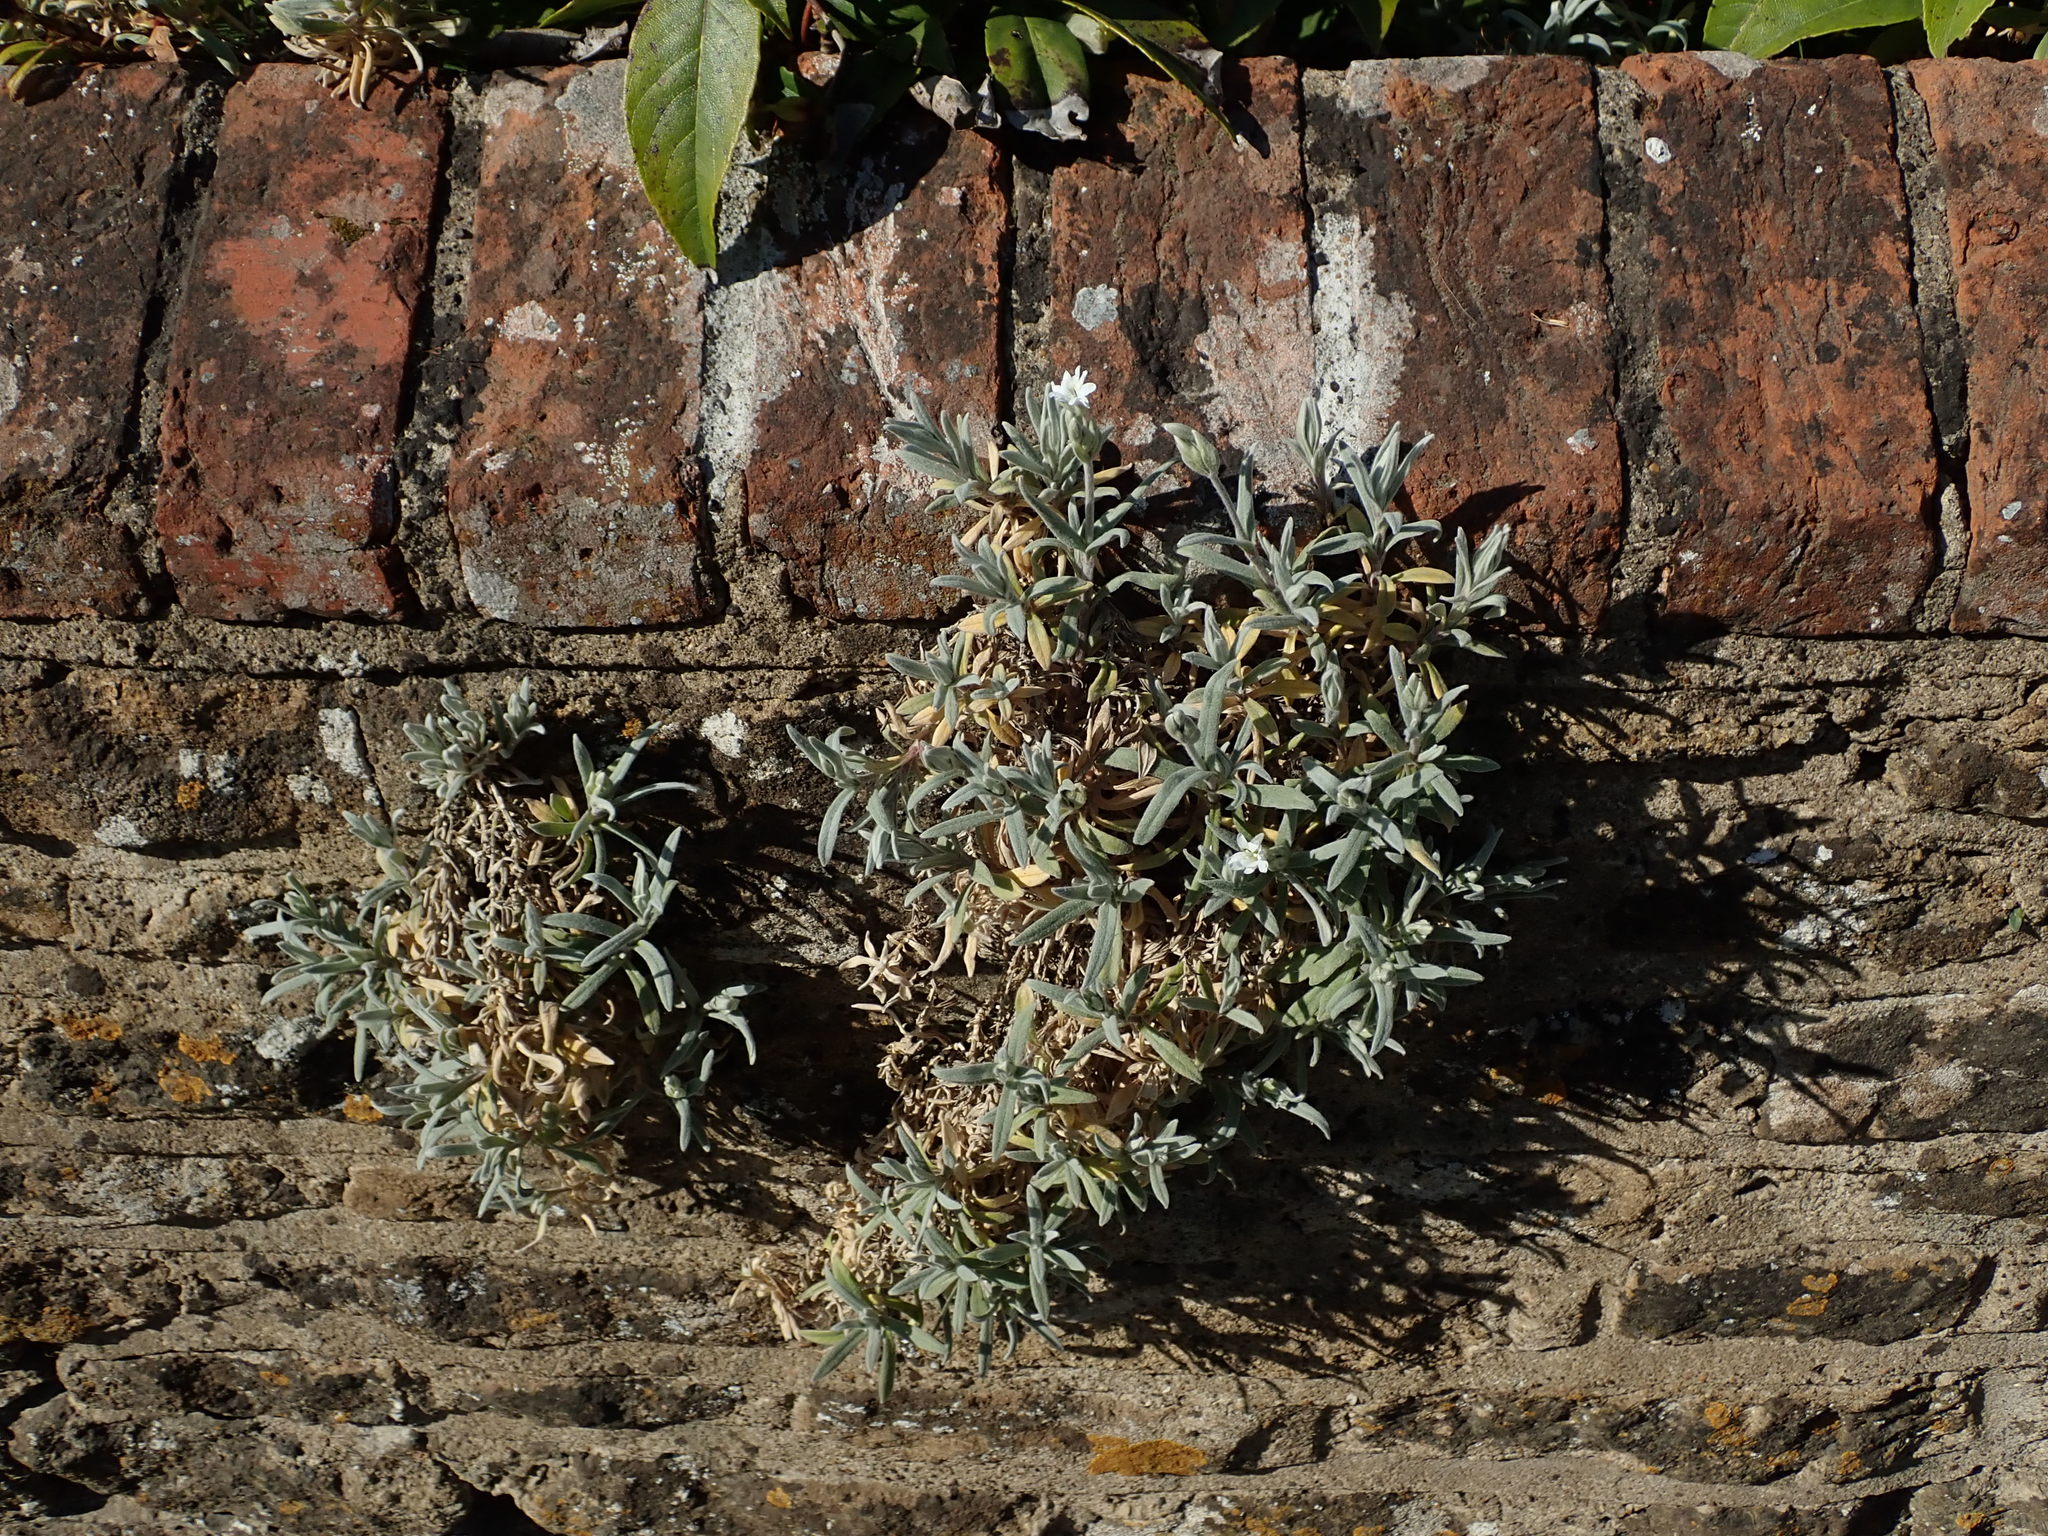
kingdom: Plantae
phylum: Tracheophyta
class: Magnoliopsida
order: Caryophyllales
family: Caryophyllaceae
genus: Cerastium
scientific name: Cerastium tomentosum
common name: Snow-in-summer
